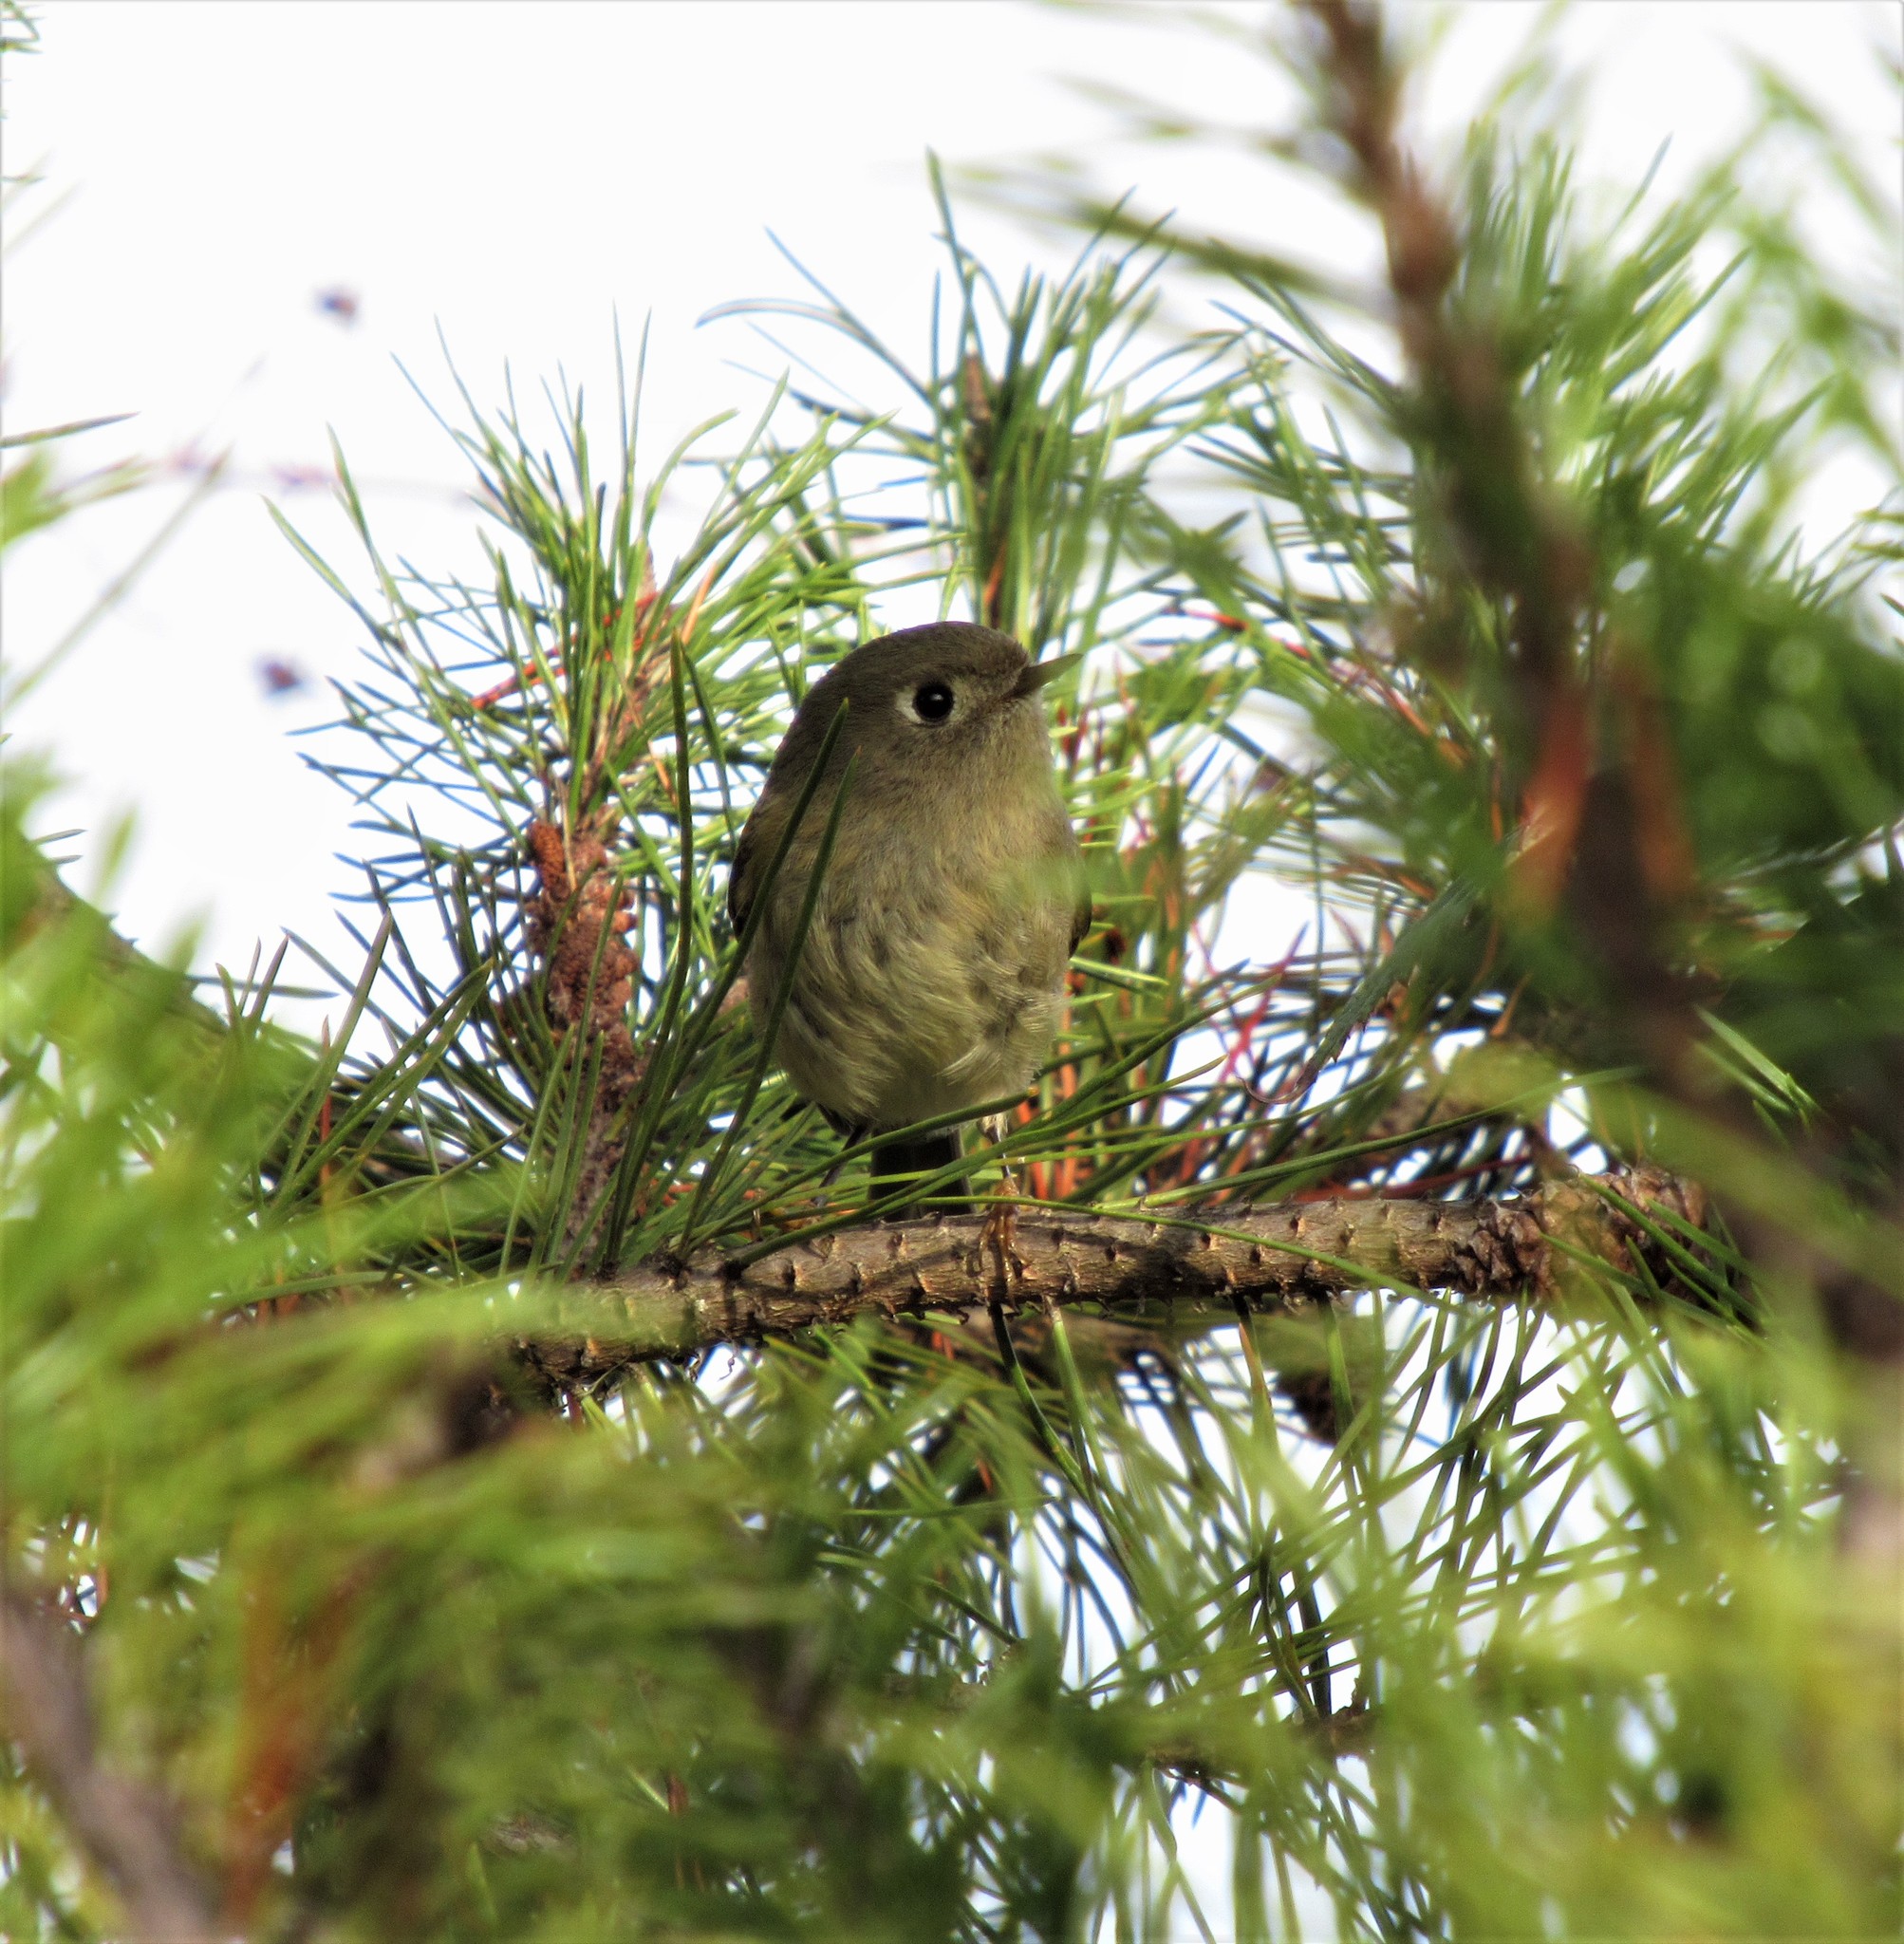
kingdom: Animalia
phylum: Chordata
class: Aves
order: Passeriformes
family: Regulidae
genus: Regulus
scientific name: Regulus calendula
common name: Ruby-crowned kinglet
